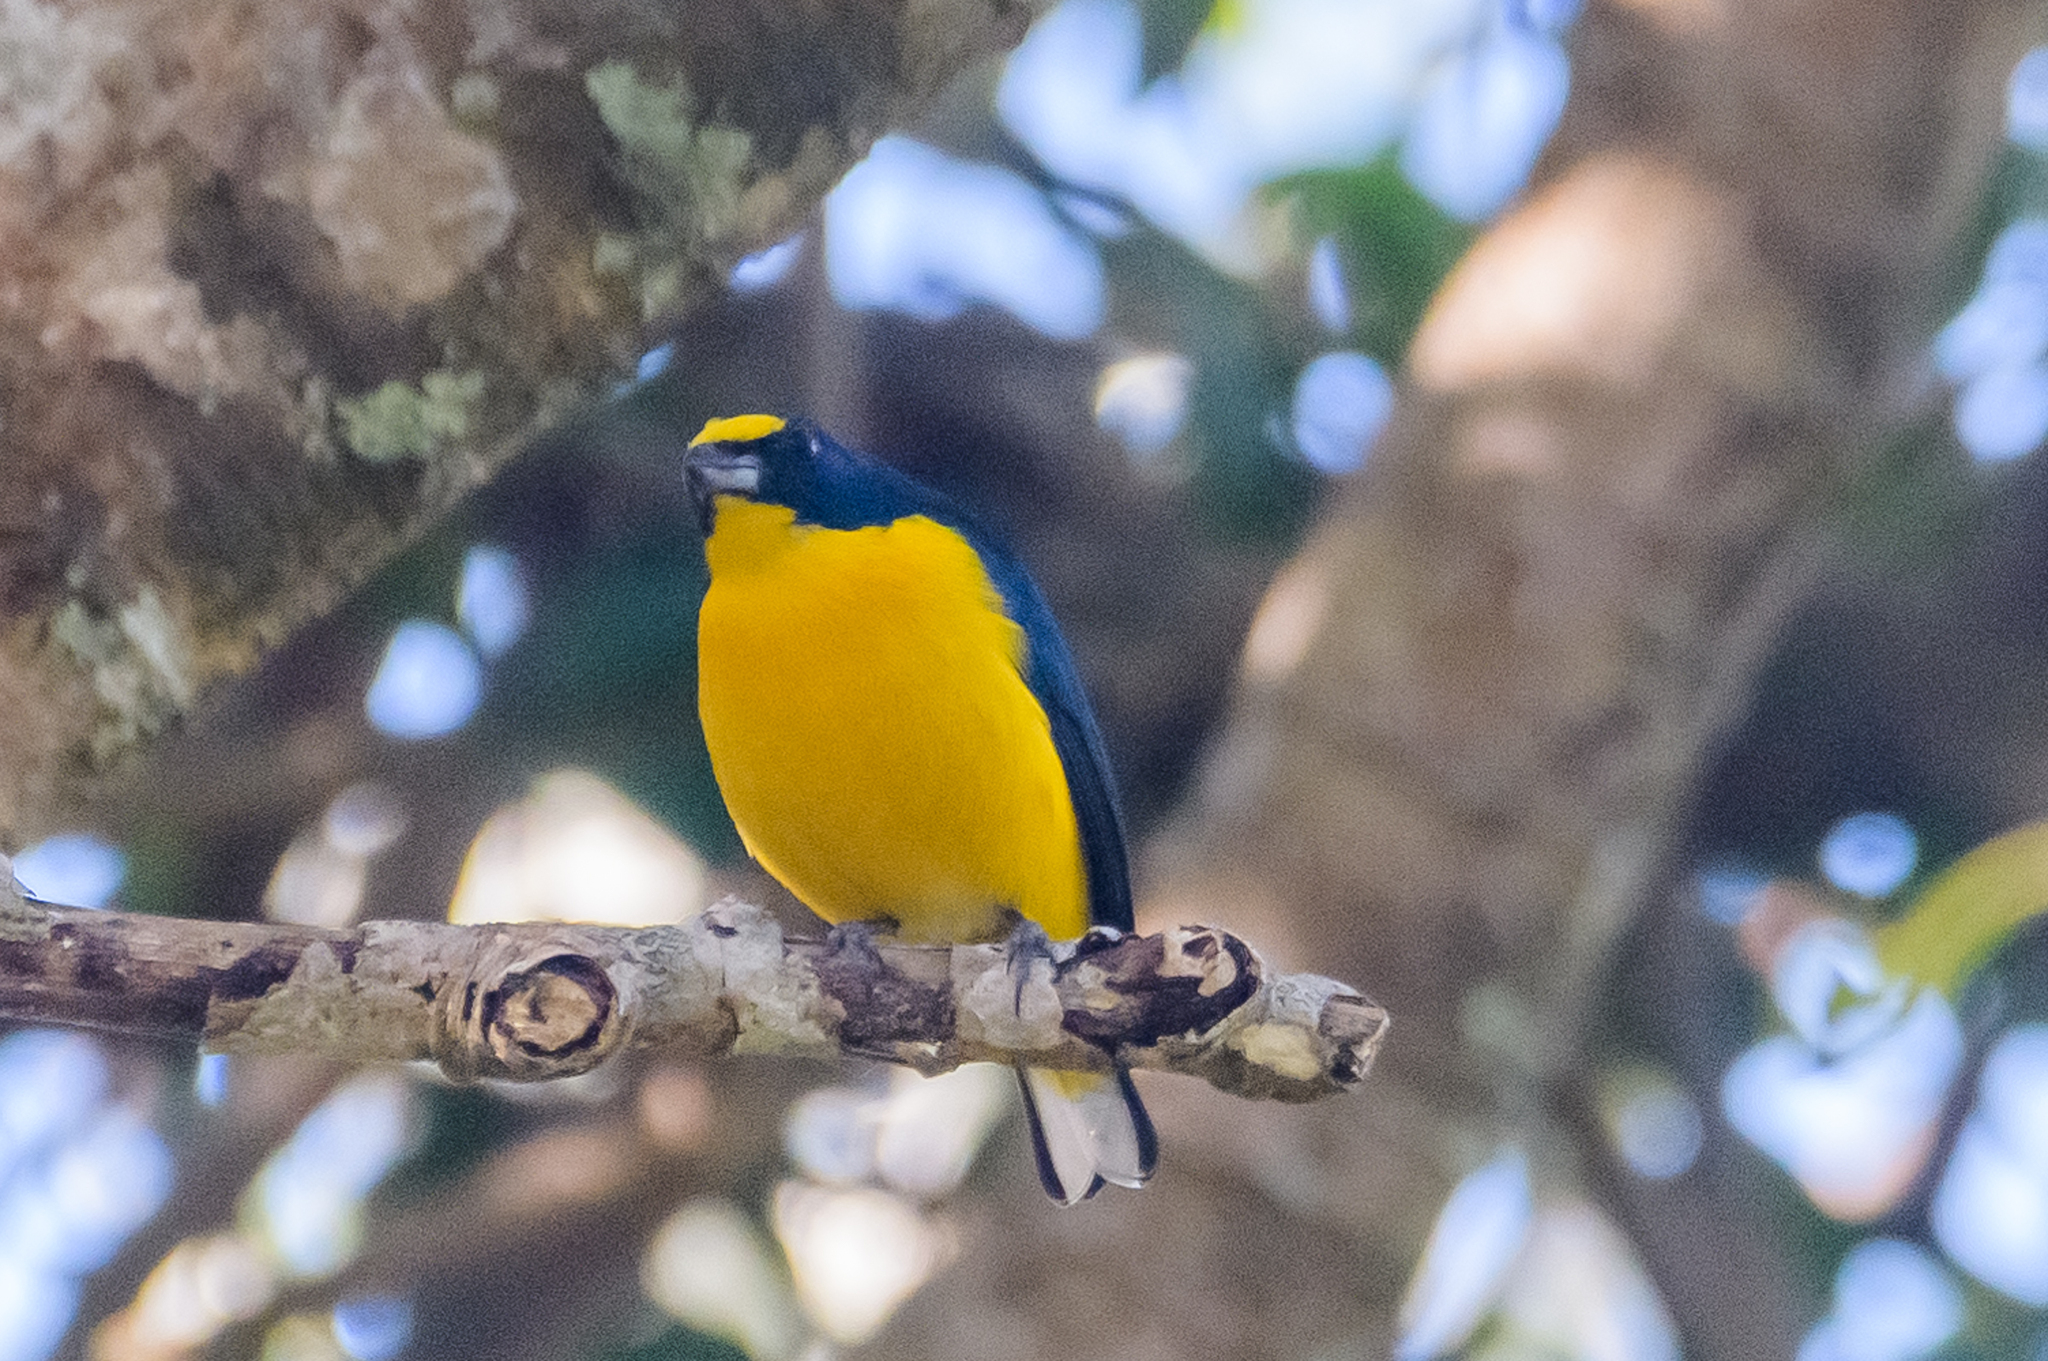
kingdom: Animalia
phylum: Chordata
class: Aves
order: Passeriformes
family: Fringillidae
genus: Euphonia
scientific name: Euphonia hirundinacea
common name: Yellow-throated euphonia
